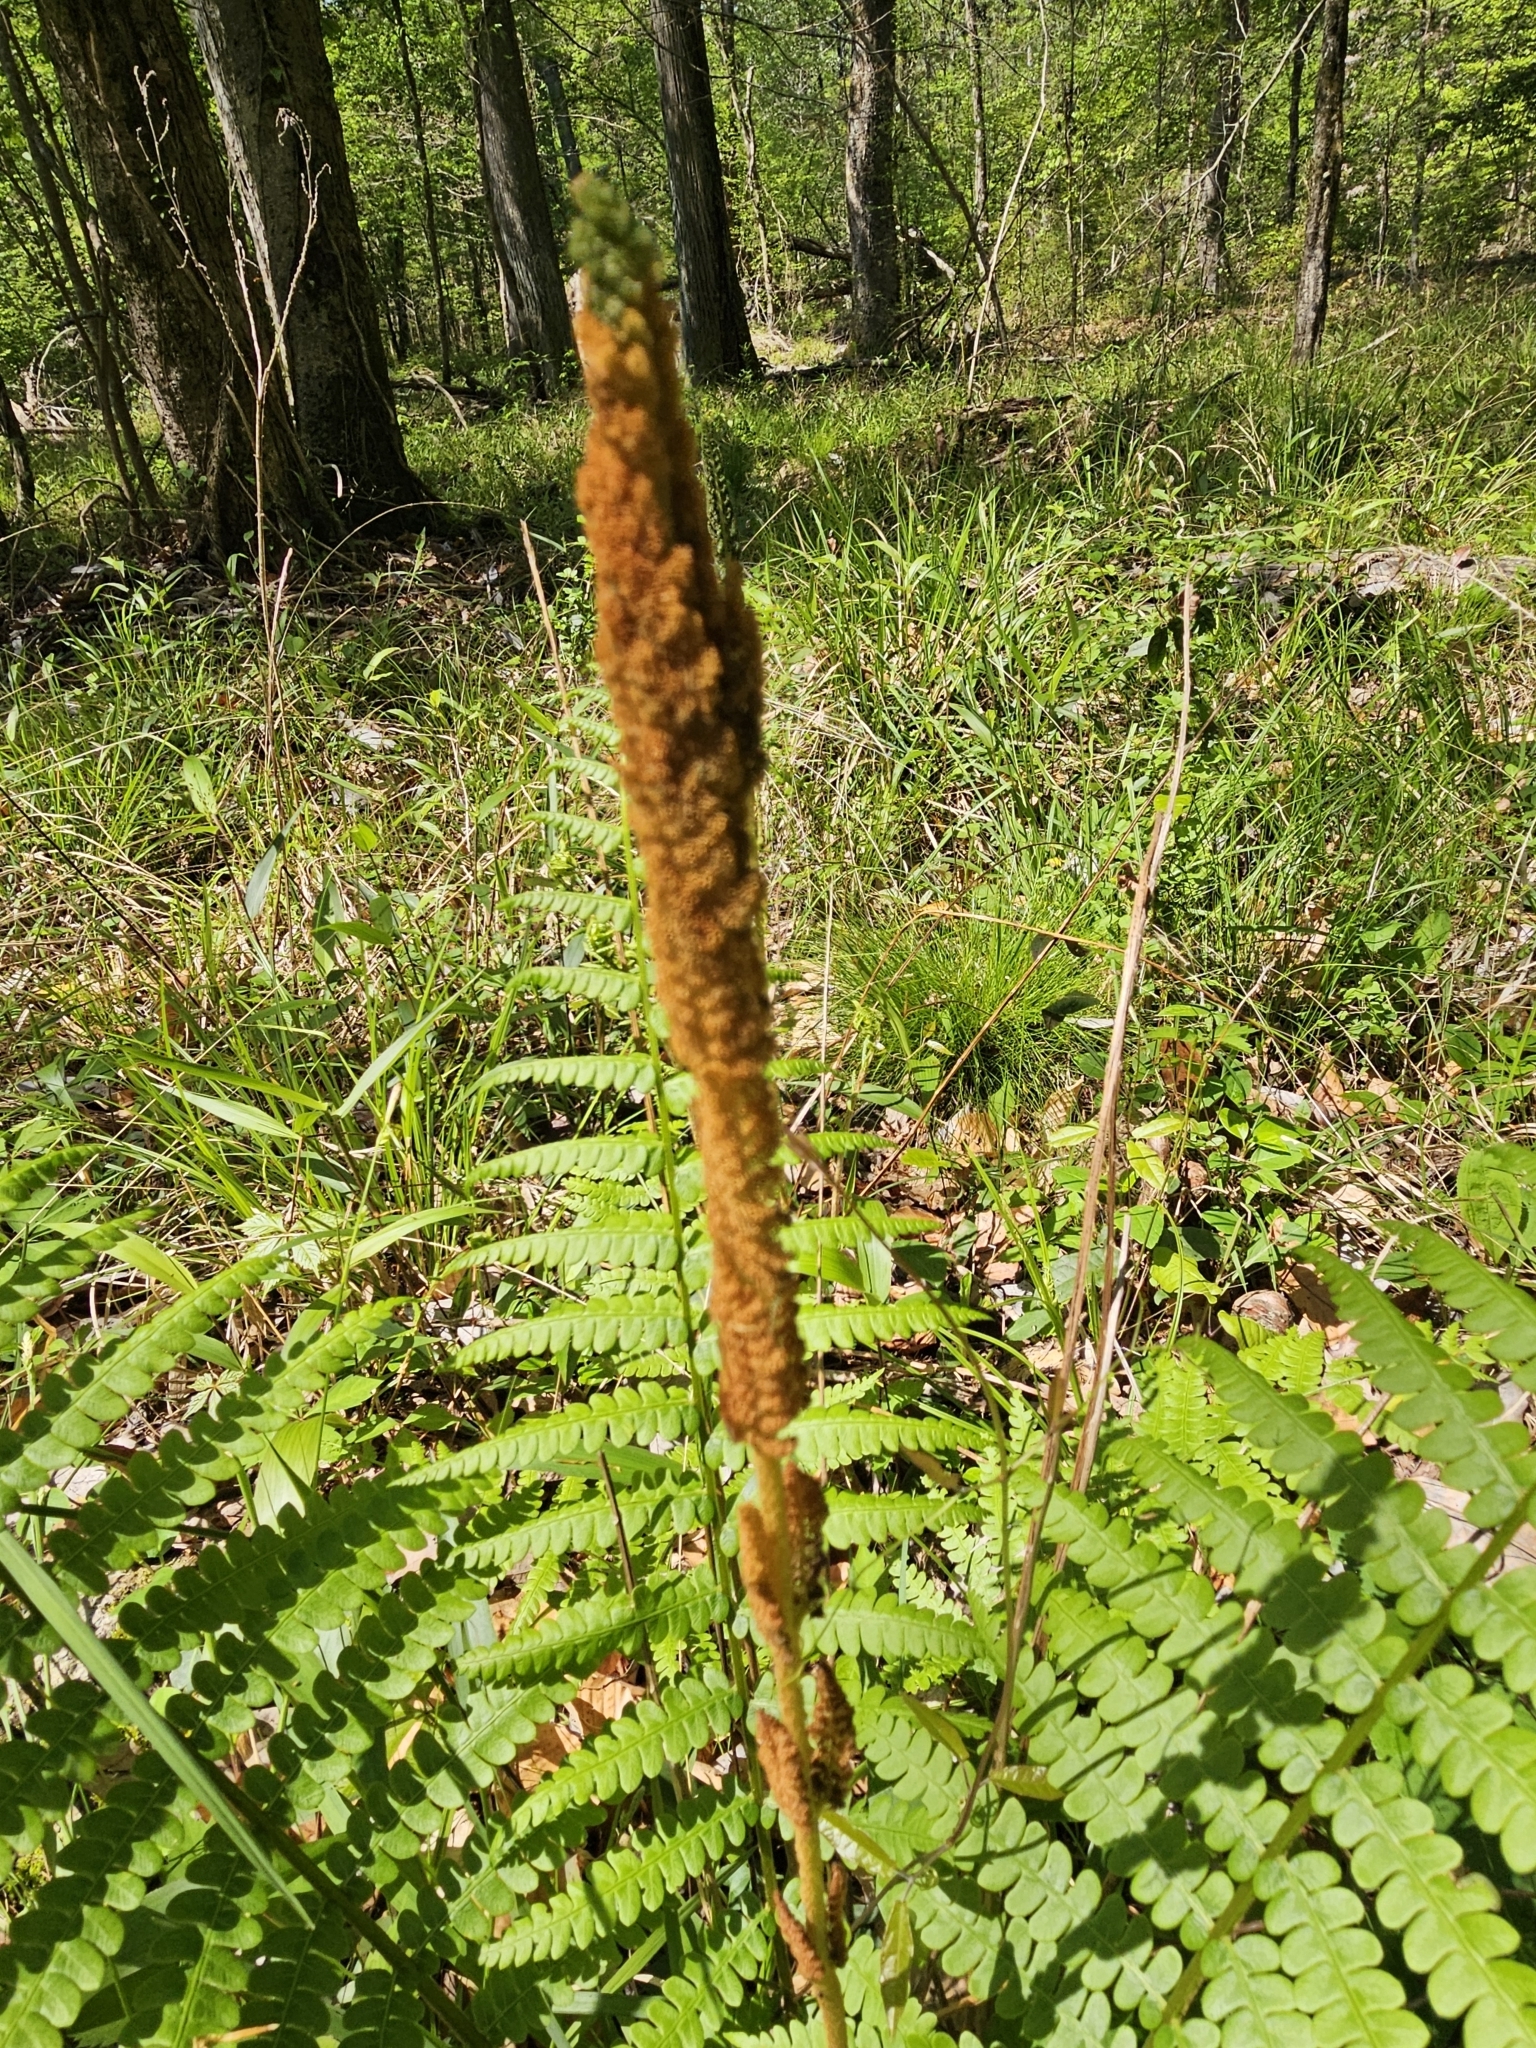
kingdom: Plantae
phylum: Tracheophyta
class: Polypodiopsida
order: Osmundales
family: Osmundaceae
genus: Osmundastrum
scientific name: Osmundastrum cinnamomeum
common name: Cinnamon fern
